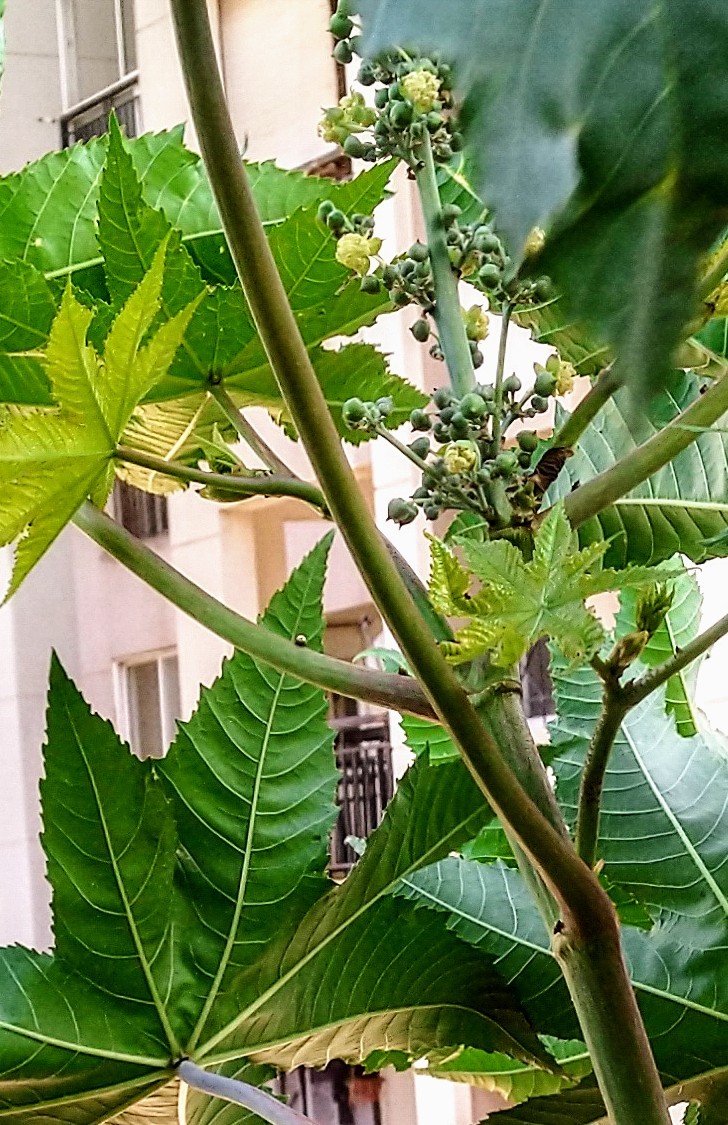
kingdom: Plantae
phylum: Tracheophyta
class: Magnoliopsida
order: Malpighiales
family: Euphorbiaceae
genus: Ricinus
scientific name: Ricinus communis
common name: Castor-oil-plant
